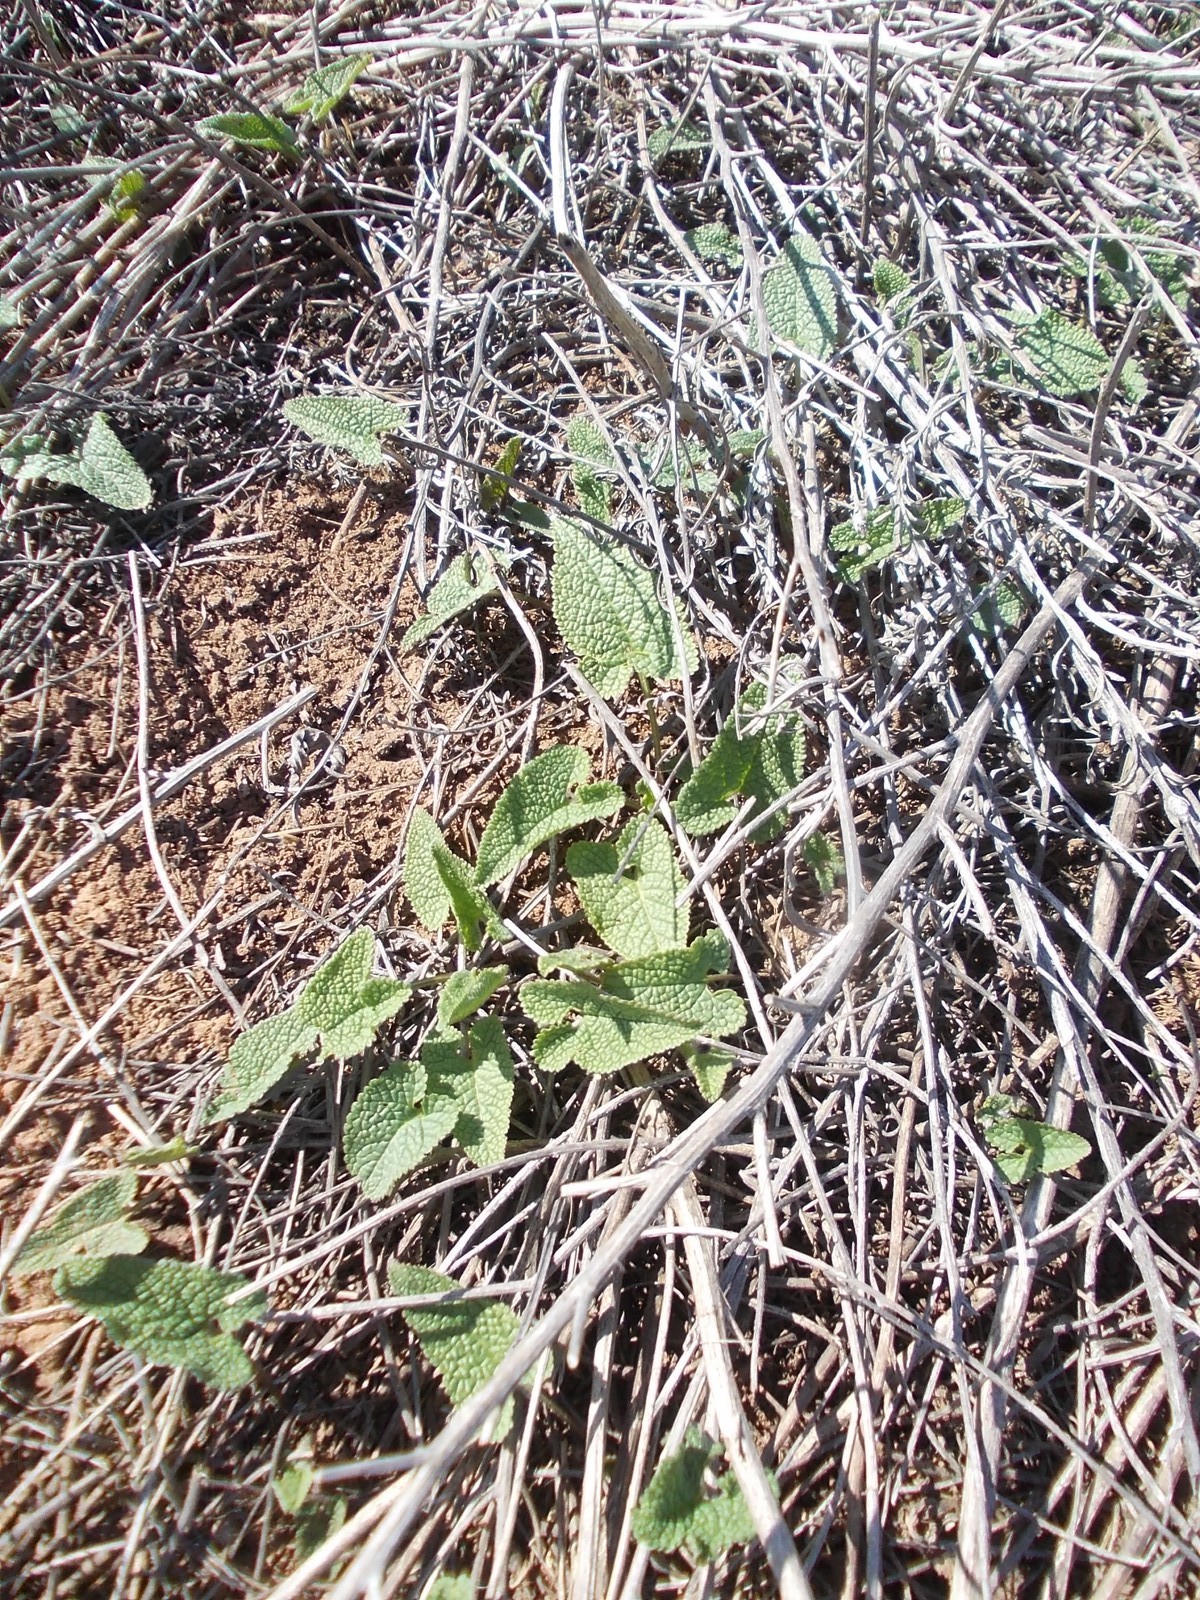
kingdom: Plantae
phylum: Tracheophyta
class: Magnoliopsida
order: Lamiales
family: Lamiaceae
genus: Phlomoides
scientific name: Phlomoides tuberosa
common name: Tuberous jerusalem sage
